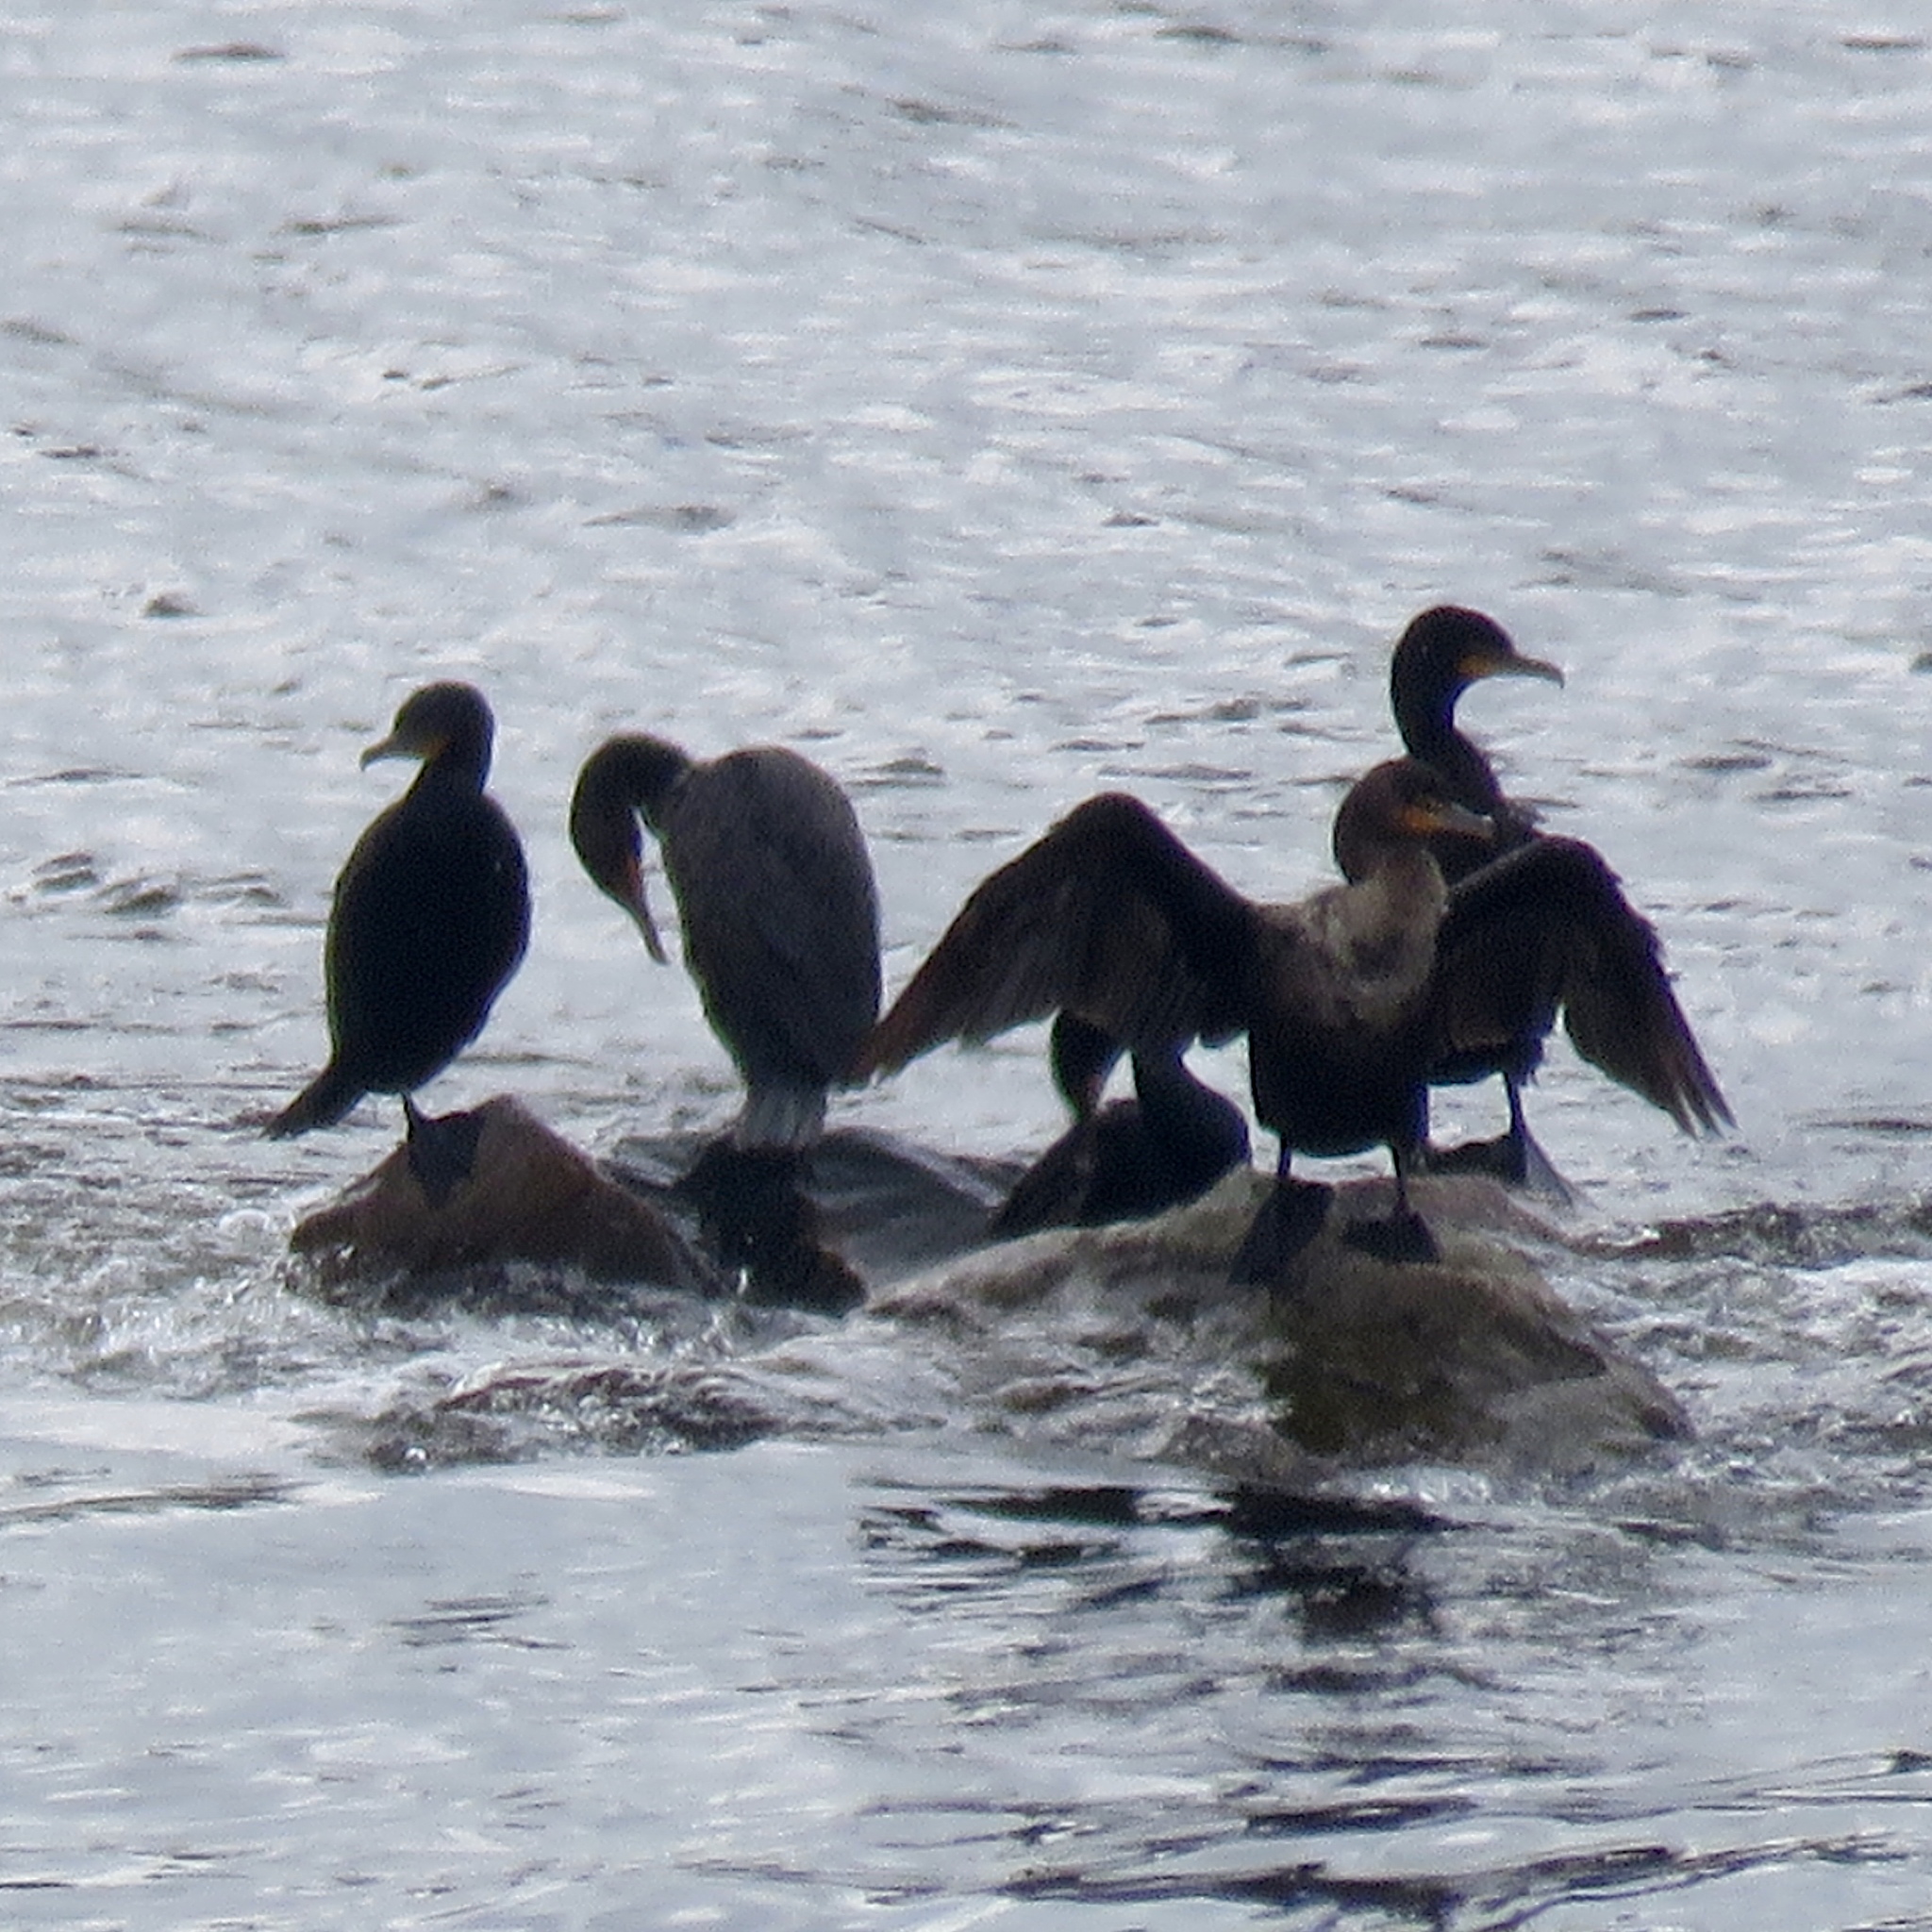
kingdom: Animalia
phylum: Chordata
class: Aves
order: Suliformes
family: Phalacrocoracidae
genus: Phalacrocorax
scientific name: Phalacrocorax auritus
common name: Double-crested cormorant
